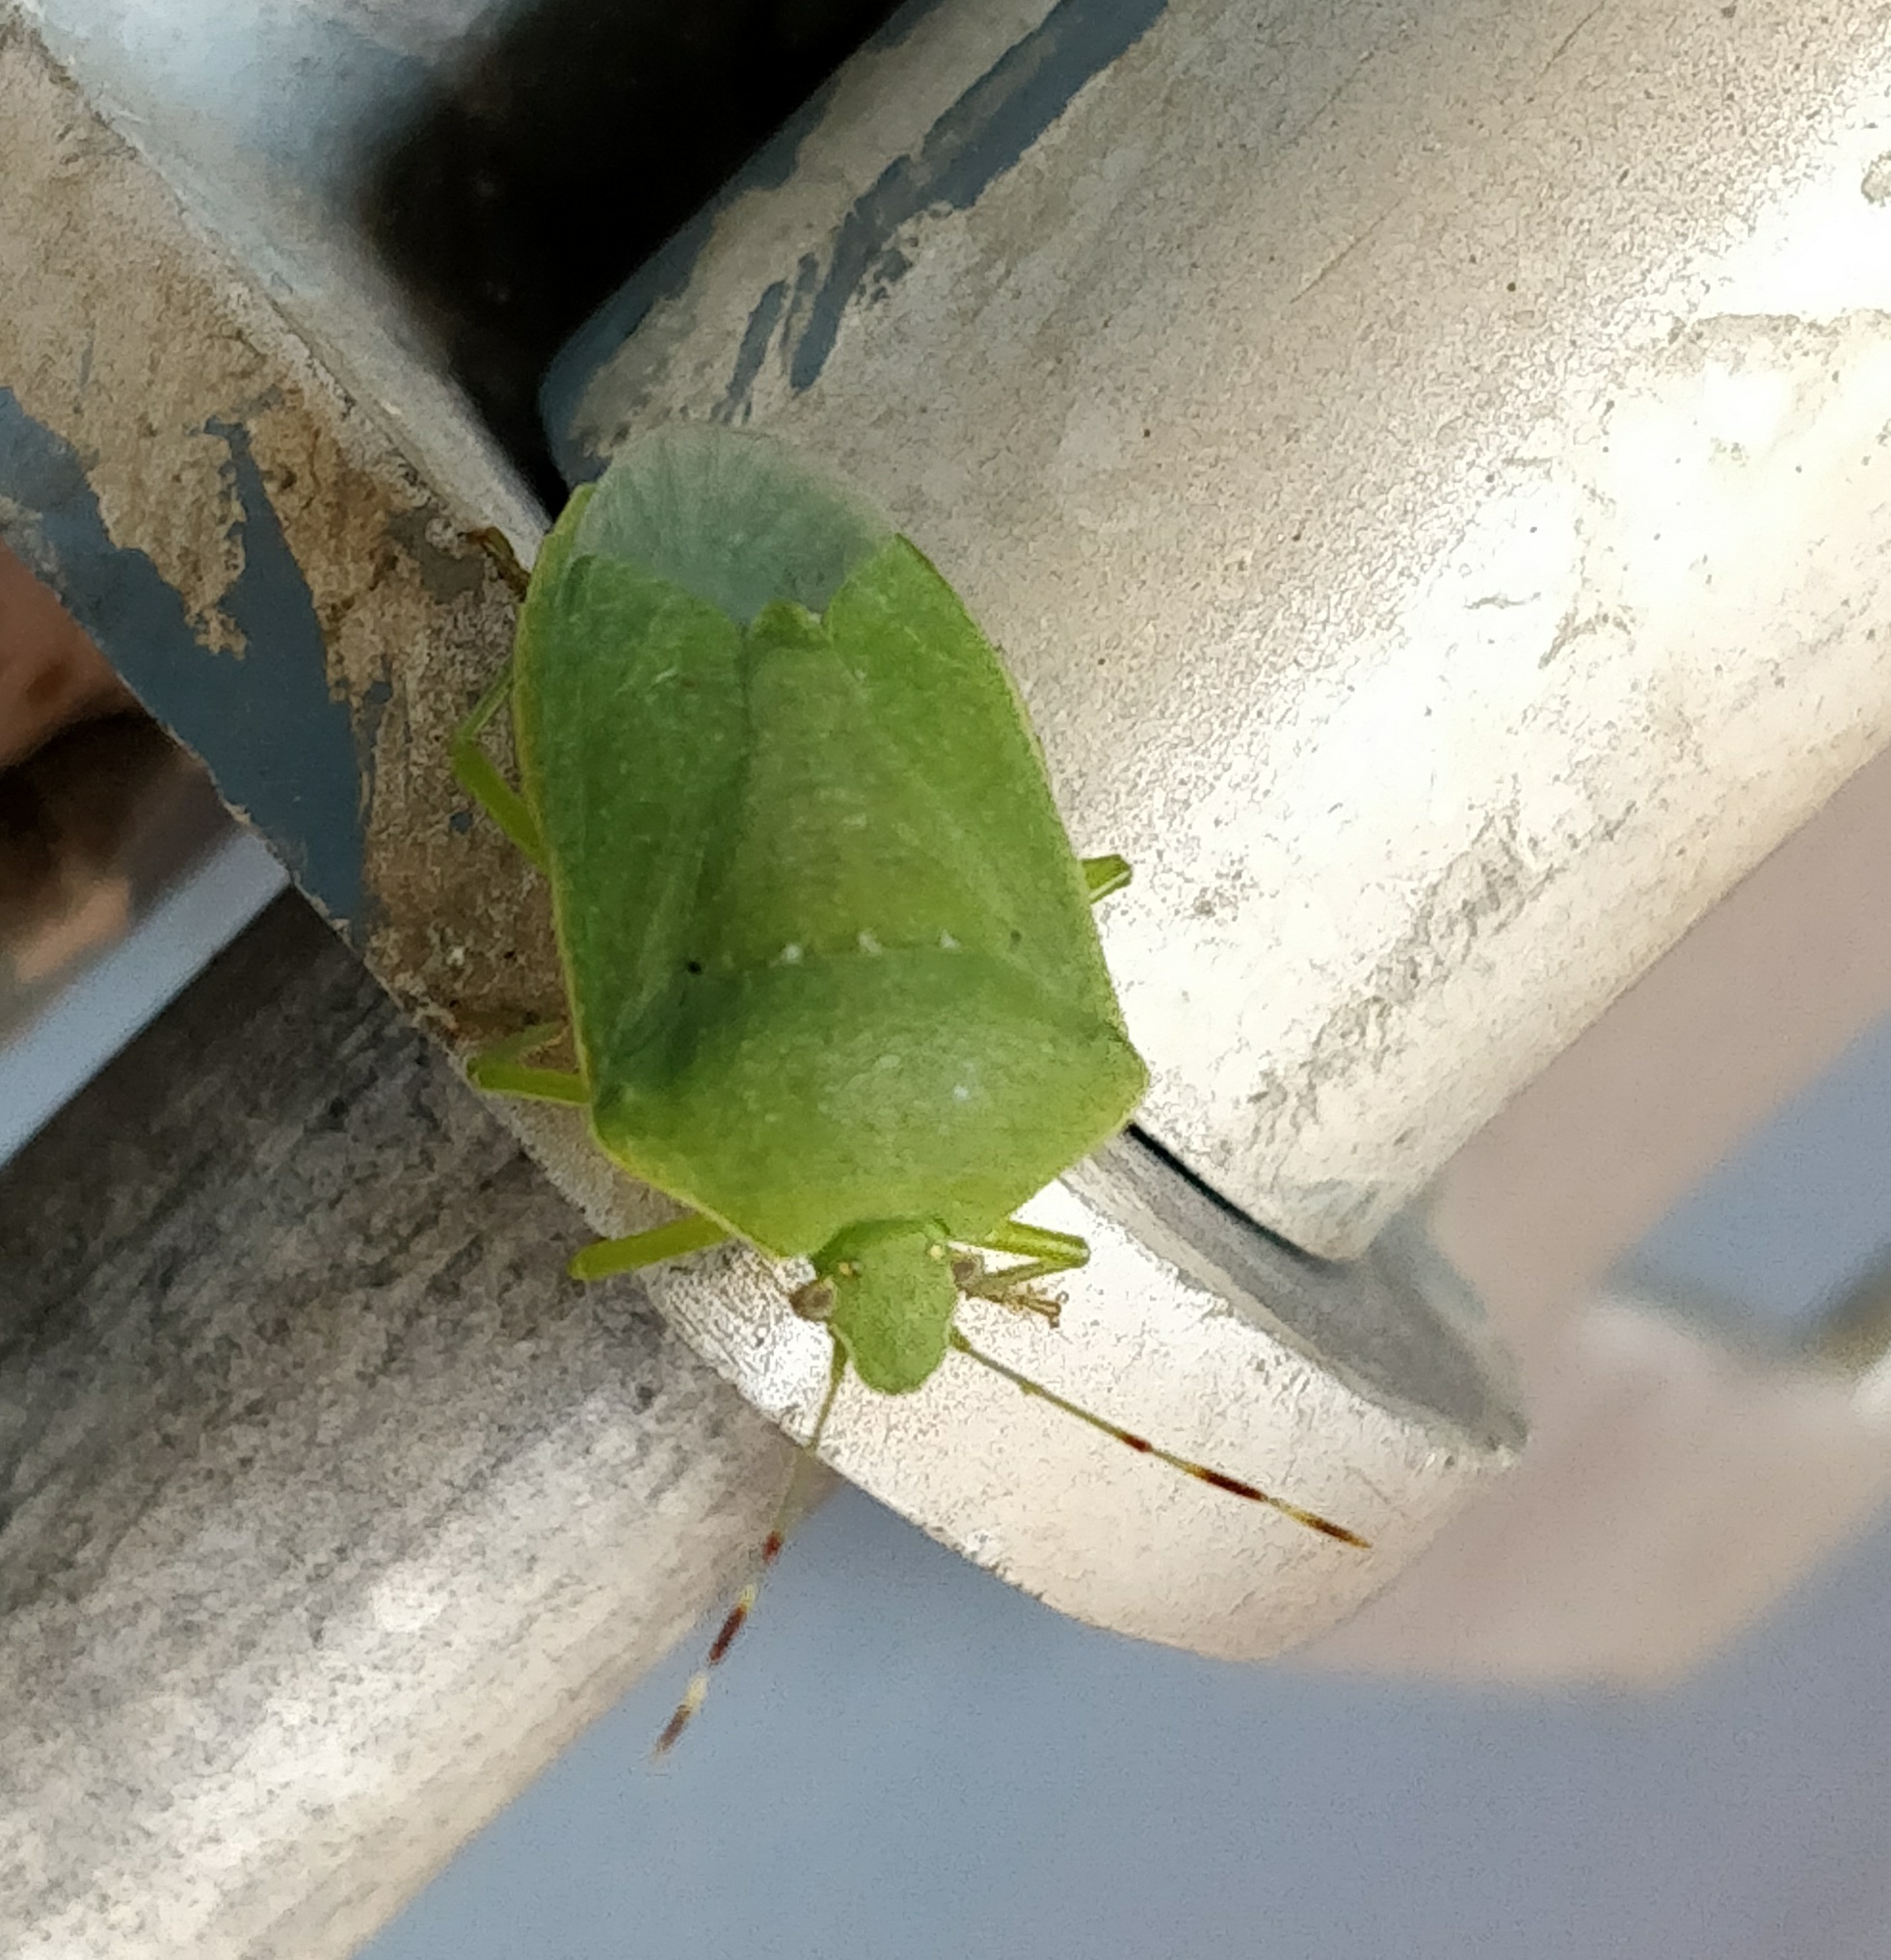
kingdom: Animalia
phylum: Arthropoda
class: Insecta
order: Hemiptera
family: Pentatomidae
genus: Nezara
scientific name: Nezara viridula
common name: Southern green stink bug
